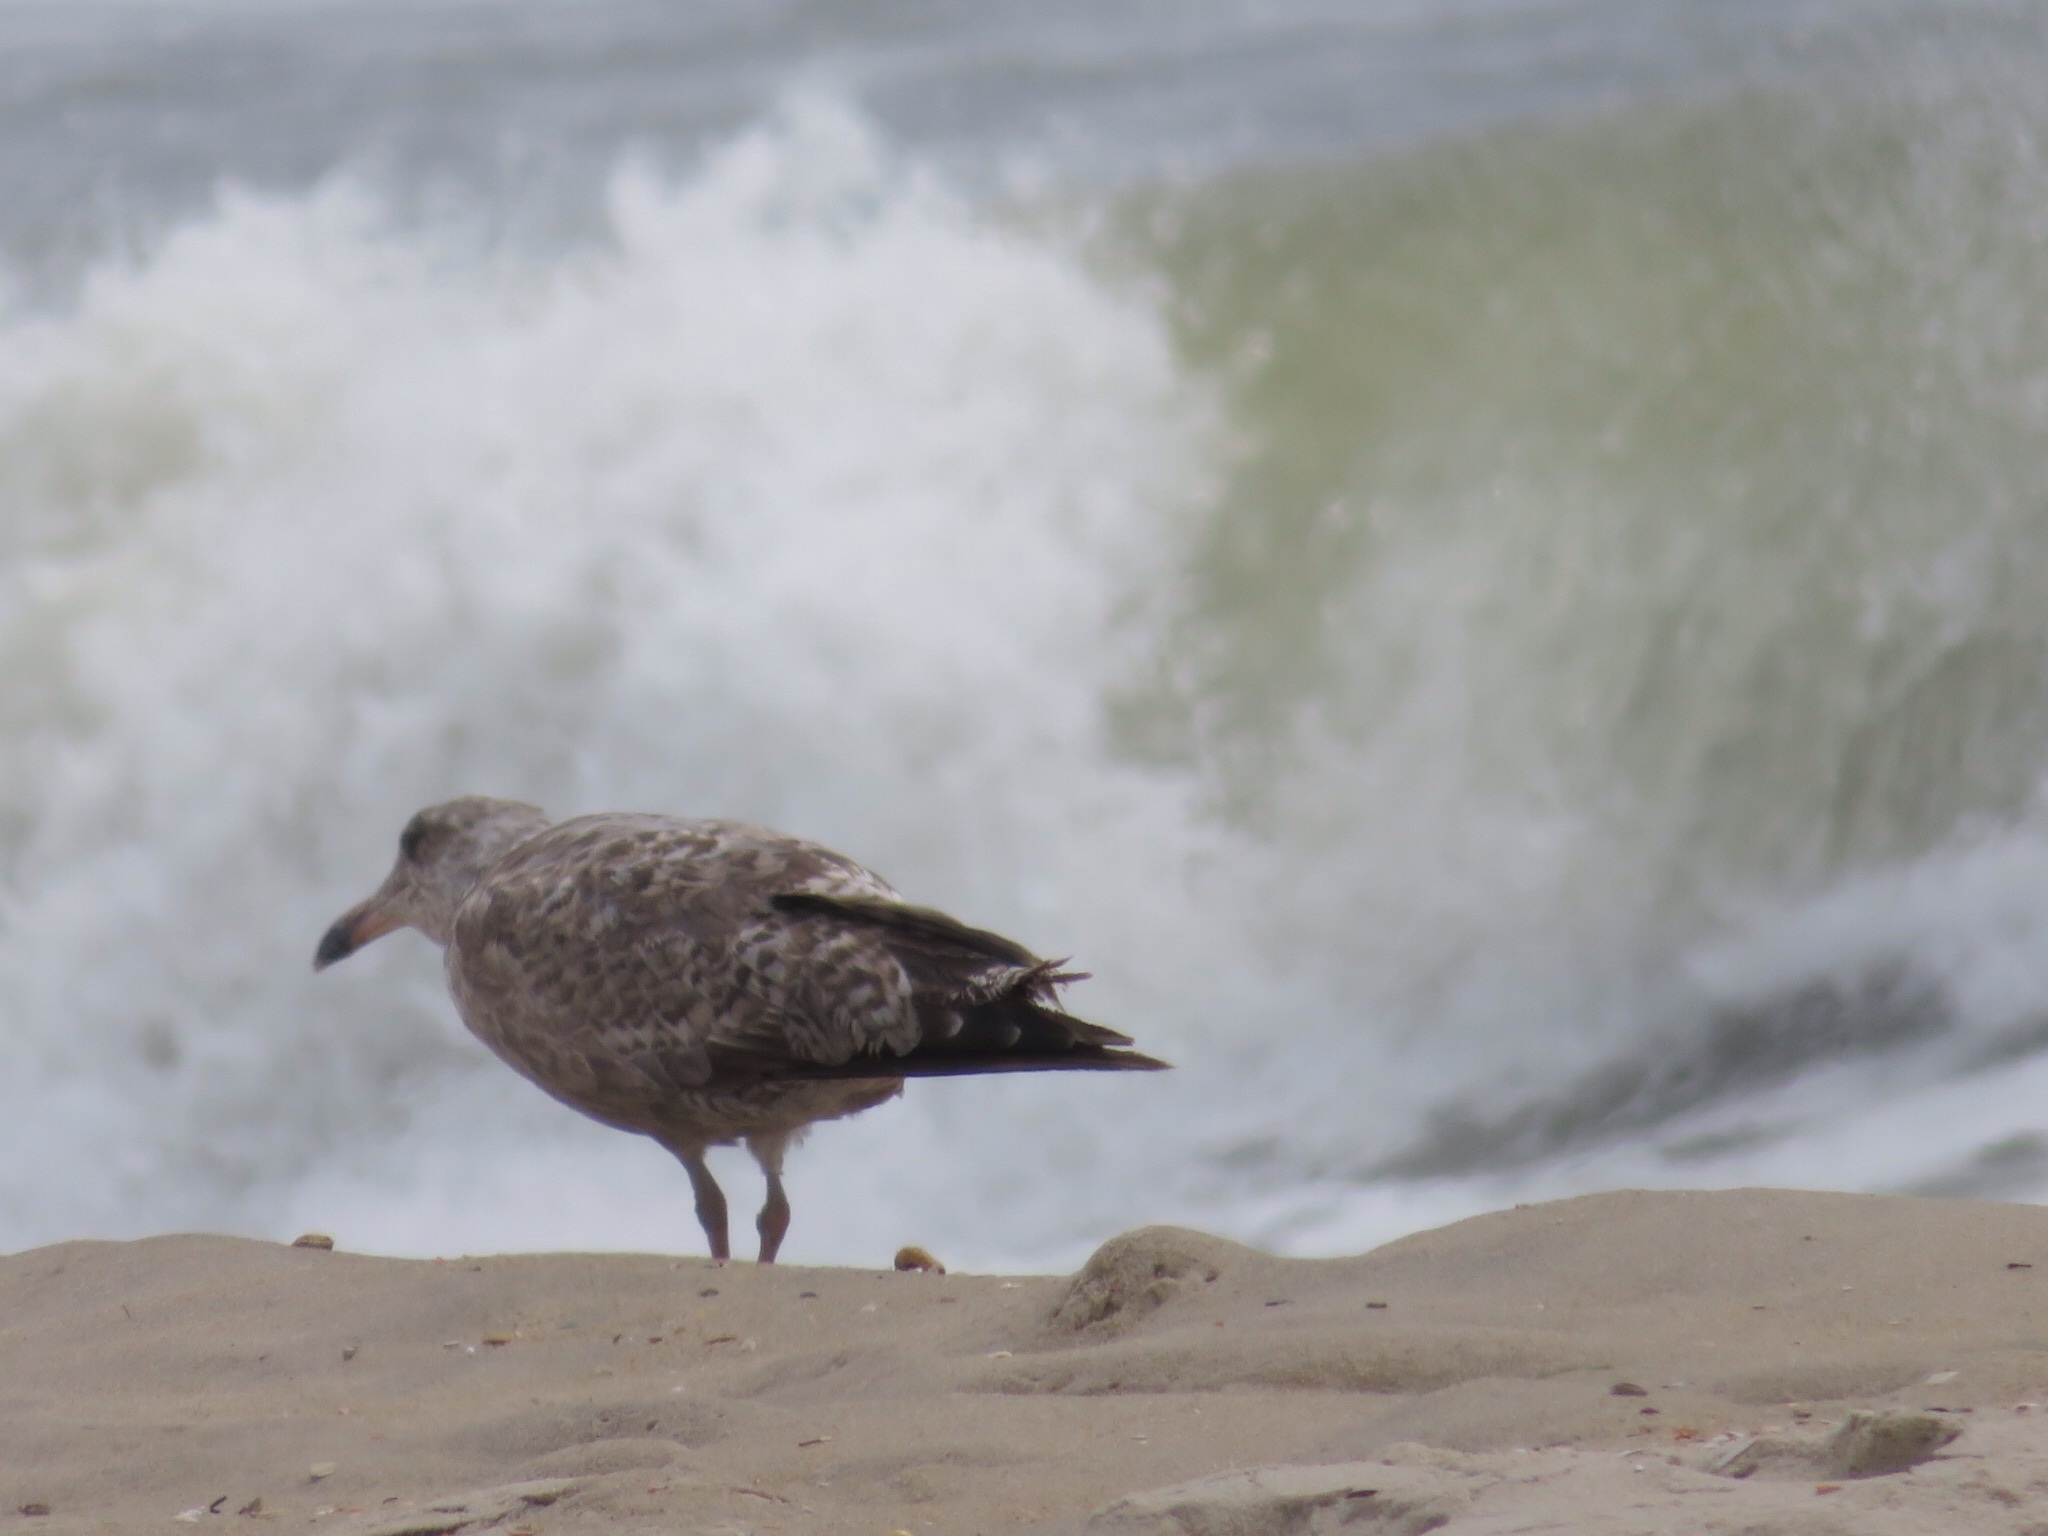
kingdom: Animalia
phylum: Chordata
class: Aves
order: Charadriiformes
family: Laridae
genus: Larus
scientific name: Larus argentatus
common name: Herring gull
